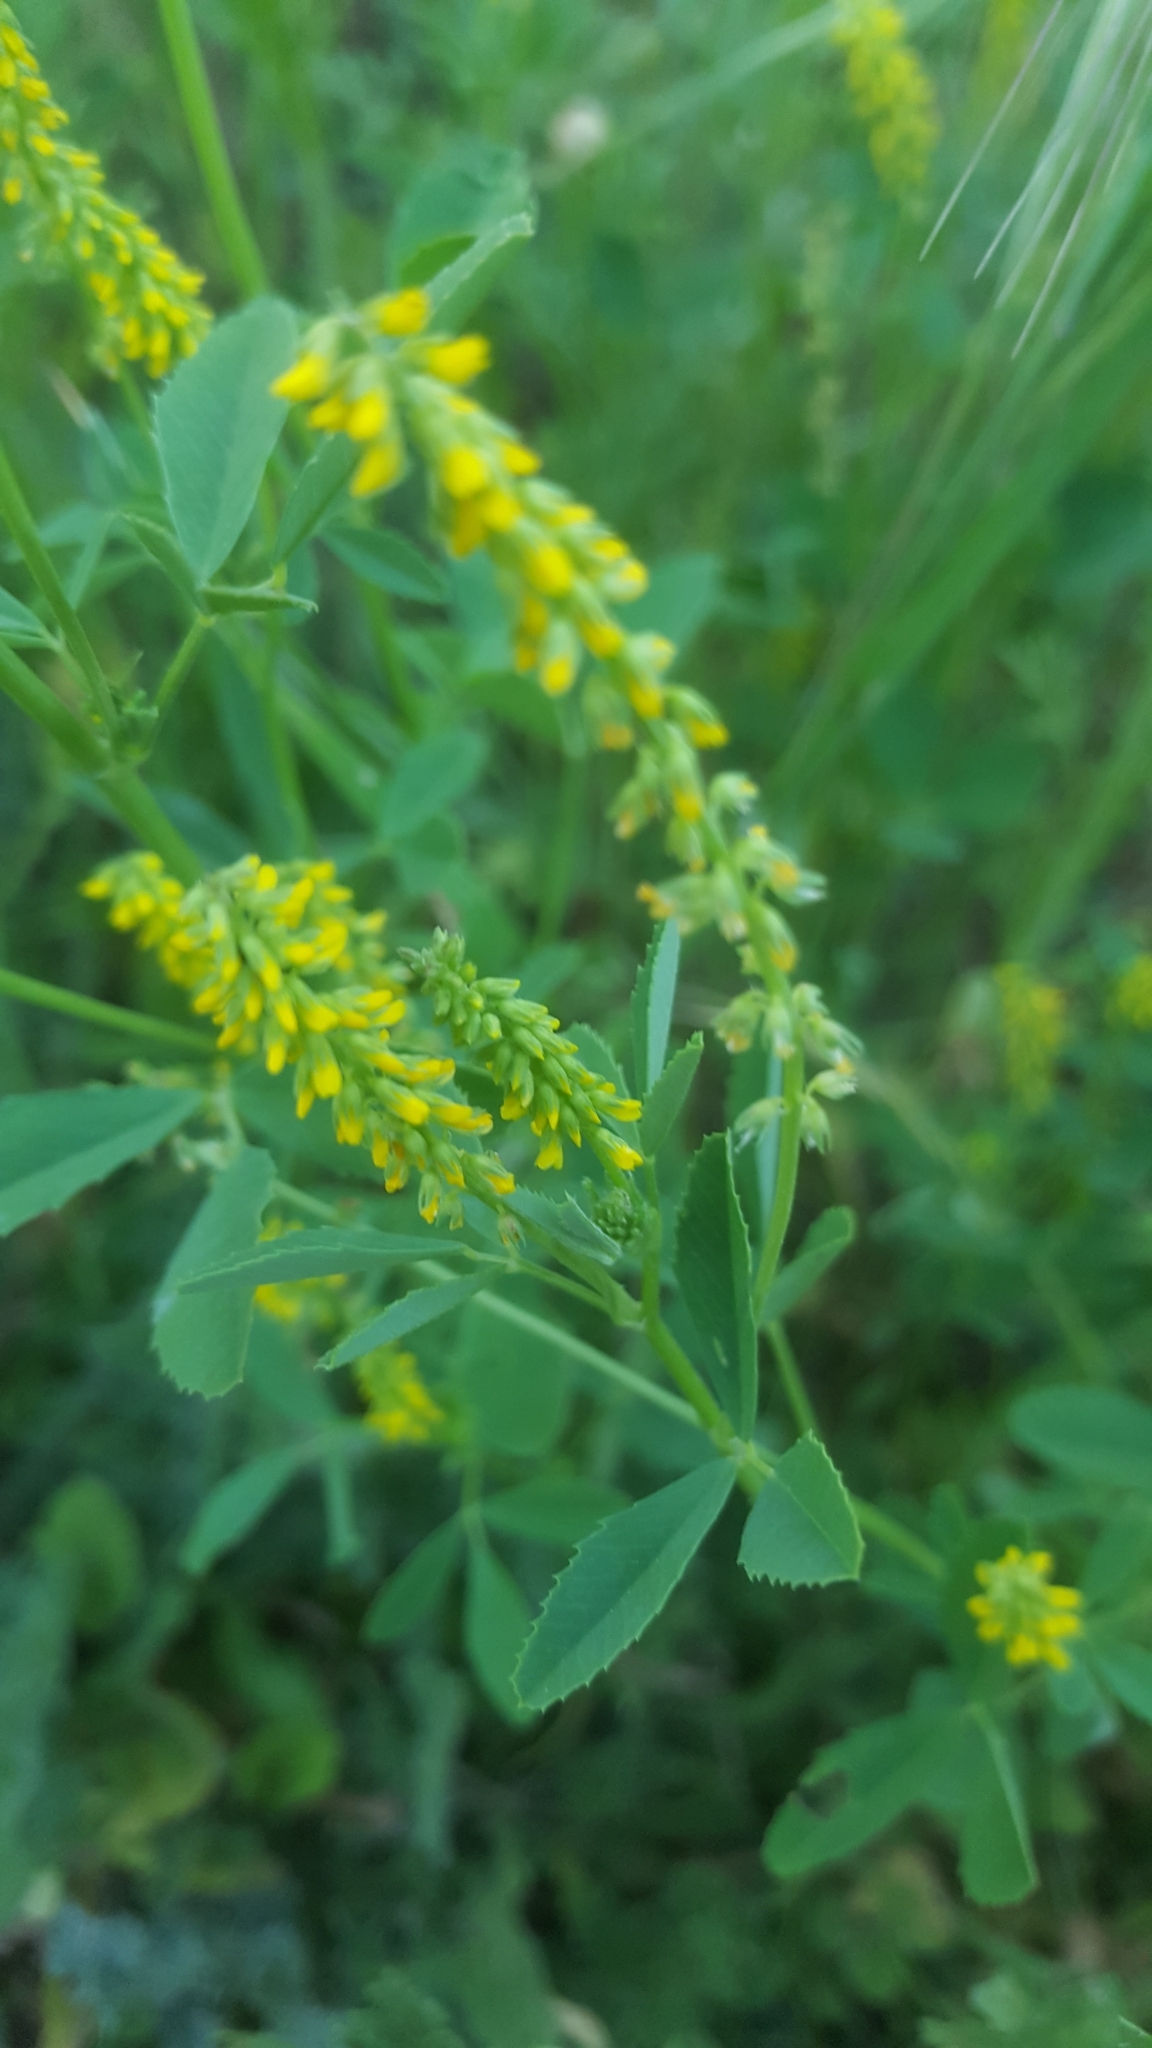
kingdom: Plantae
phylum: Tracheophyta
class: Magnoliopsida
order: Fabales
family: Fabaceae
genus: Melilotus
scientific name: Melilotus indicus
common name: Small melilot
